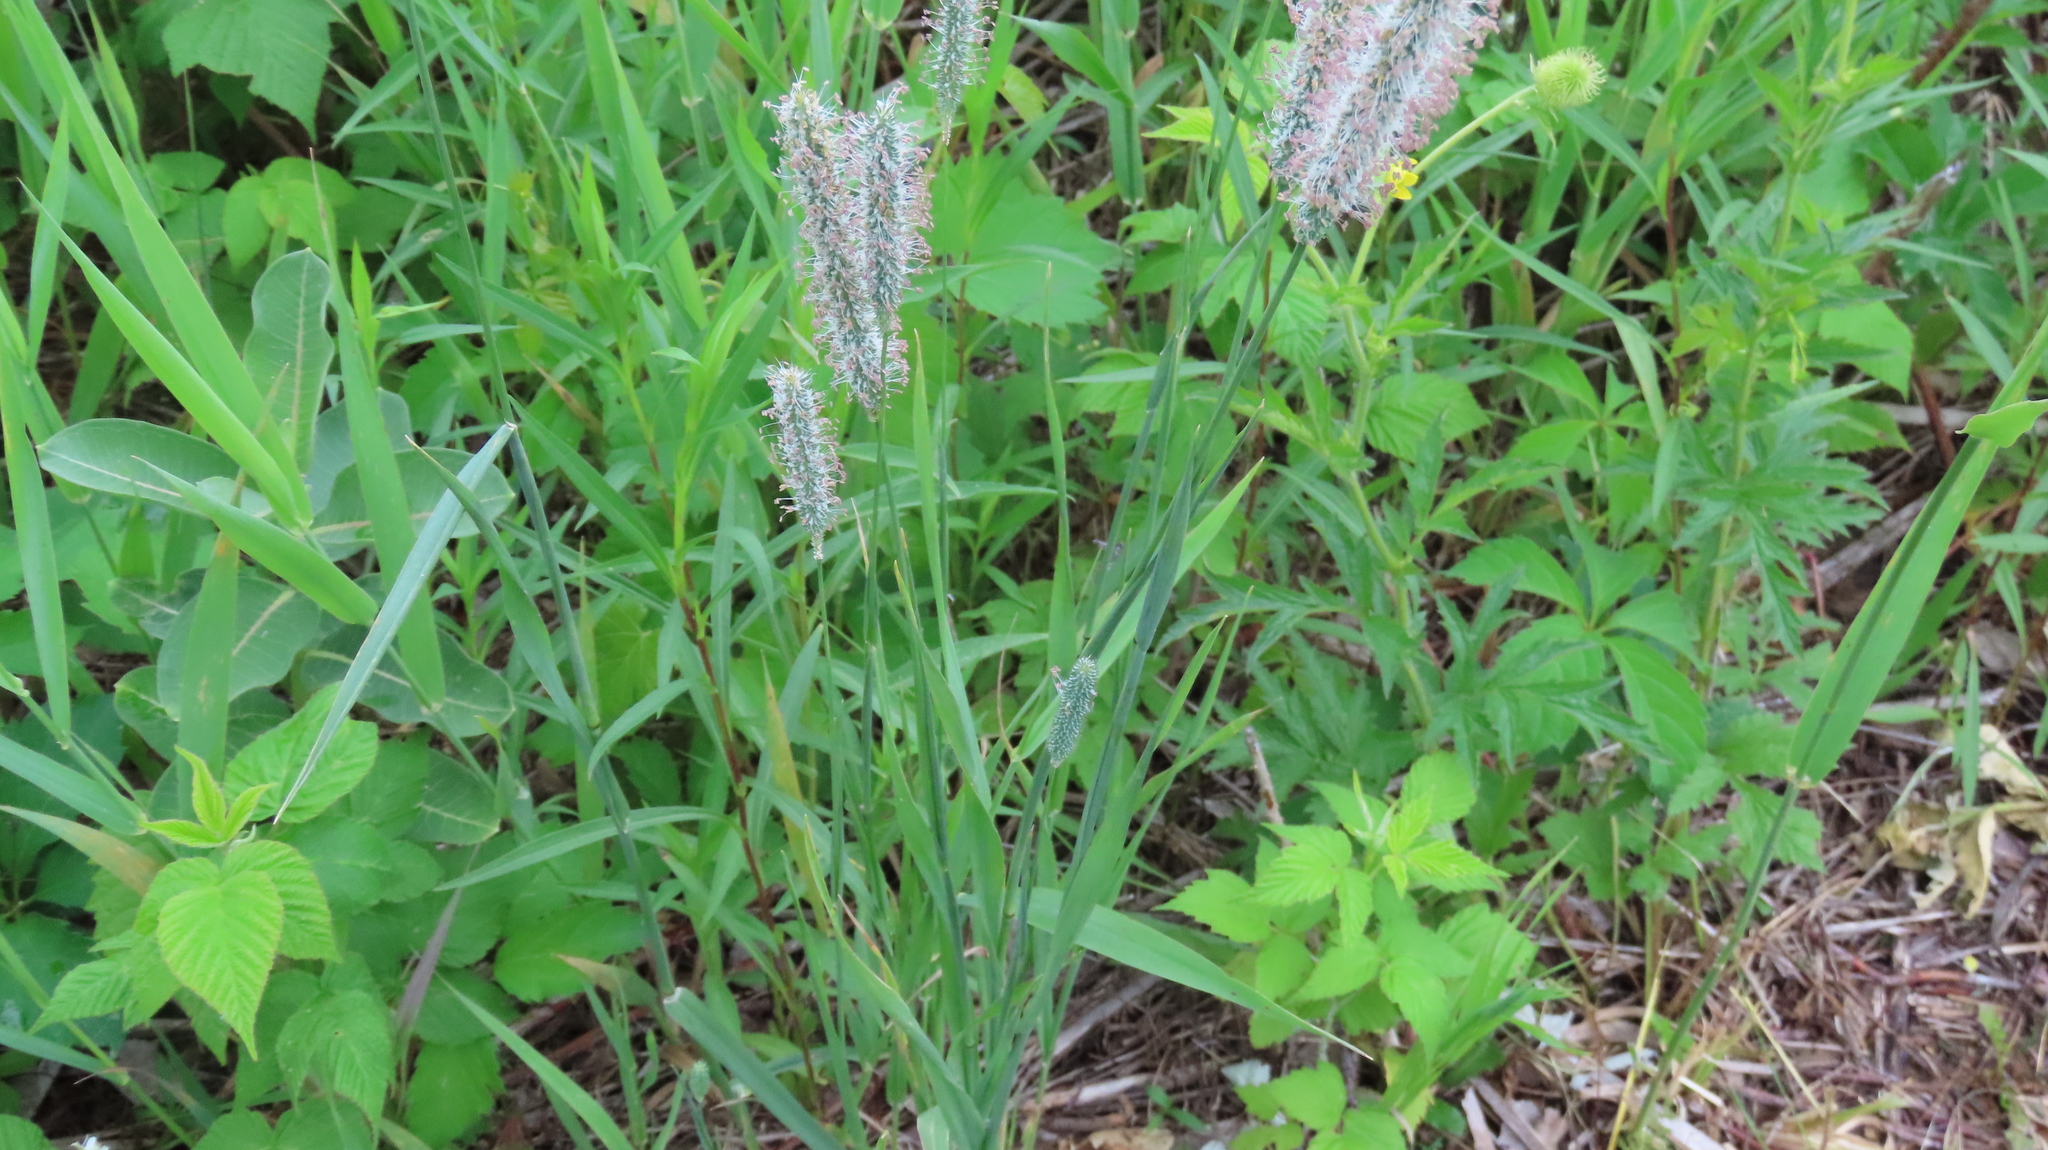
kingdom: Plantae
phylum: Tracheophyta
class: Liliopsida
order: Poales
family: Poaceae
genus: Phleum
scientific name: Phleum pratense
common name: Timothy grass
